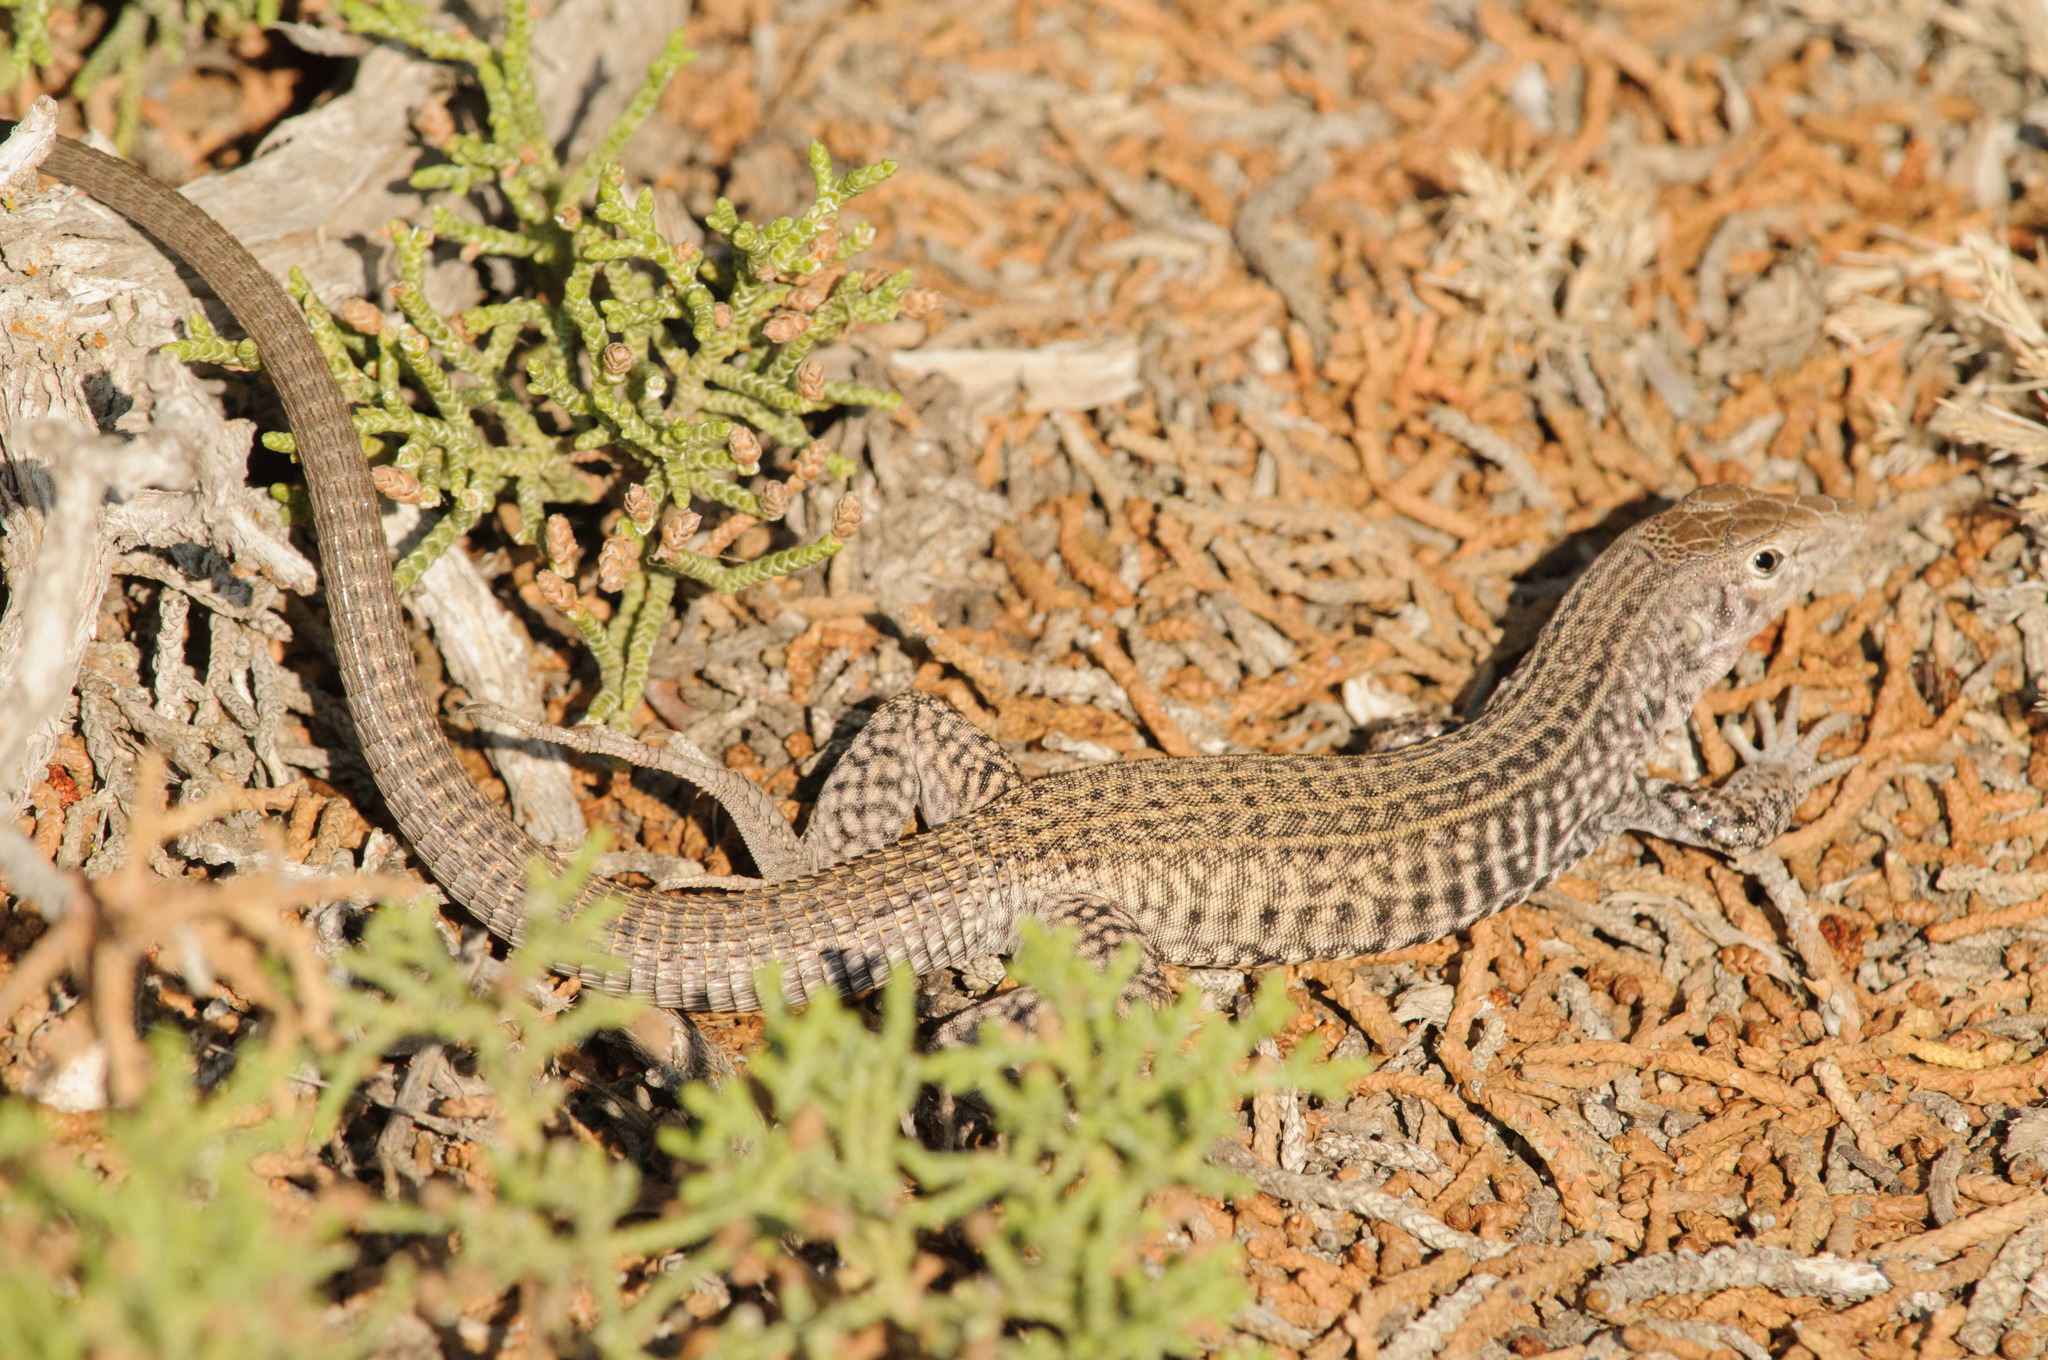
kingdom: Animalia
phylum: Chordata
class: Squamata
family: Teiidae
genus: Aspidoscelis
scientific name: Aspidoscelis tigris
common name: Tiger whiptail
